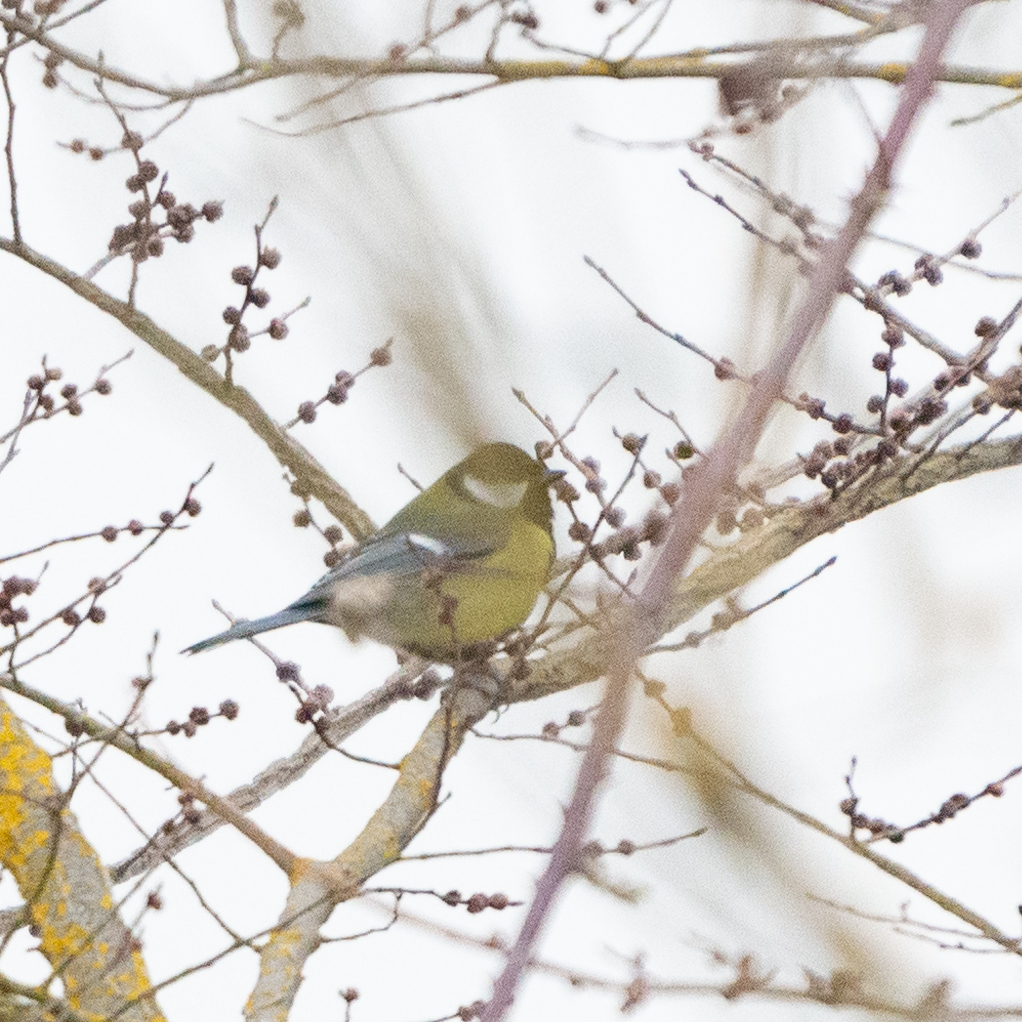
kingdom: Animalia
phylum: Chordata
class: Aves
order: Passeriformes
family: Paridae
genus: Parus
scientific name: Parus major
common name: Great tit
